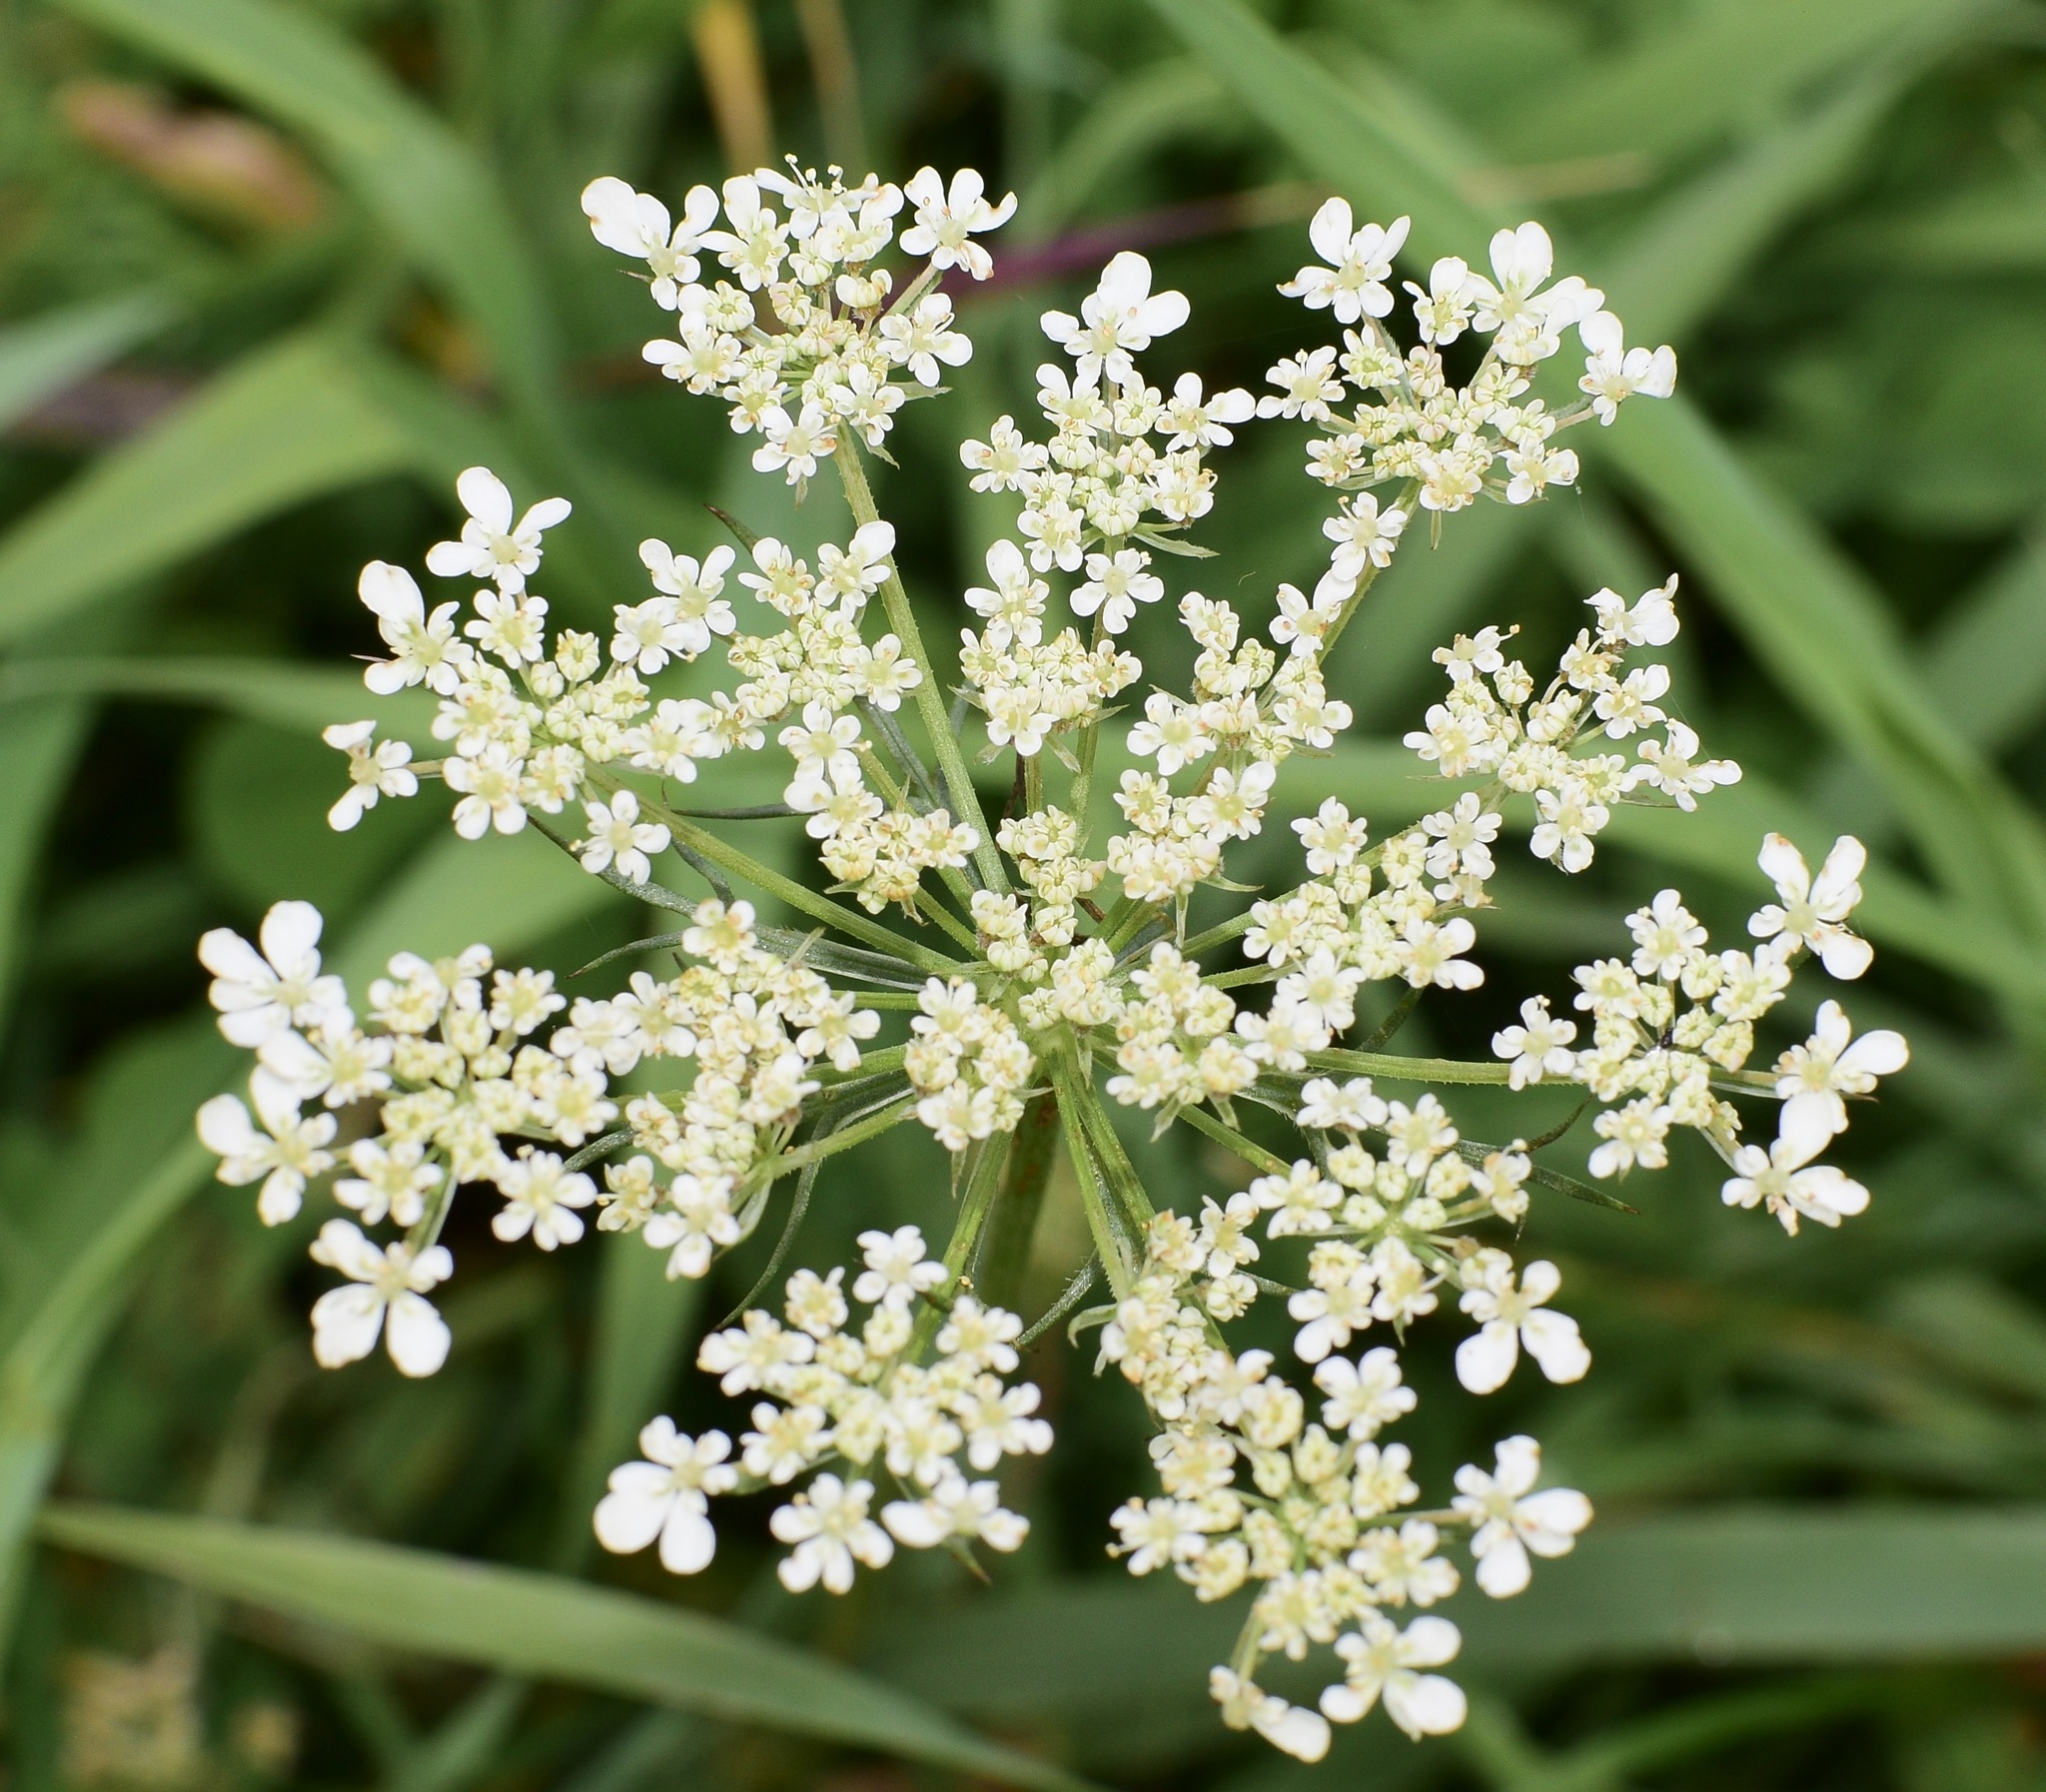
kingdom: Plantae
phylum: Tracheophyta
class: Magnoliopsida
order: Apiales
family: Apiaceae
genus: Daucus
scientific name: Daucus carota
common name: Wild carrot
